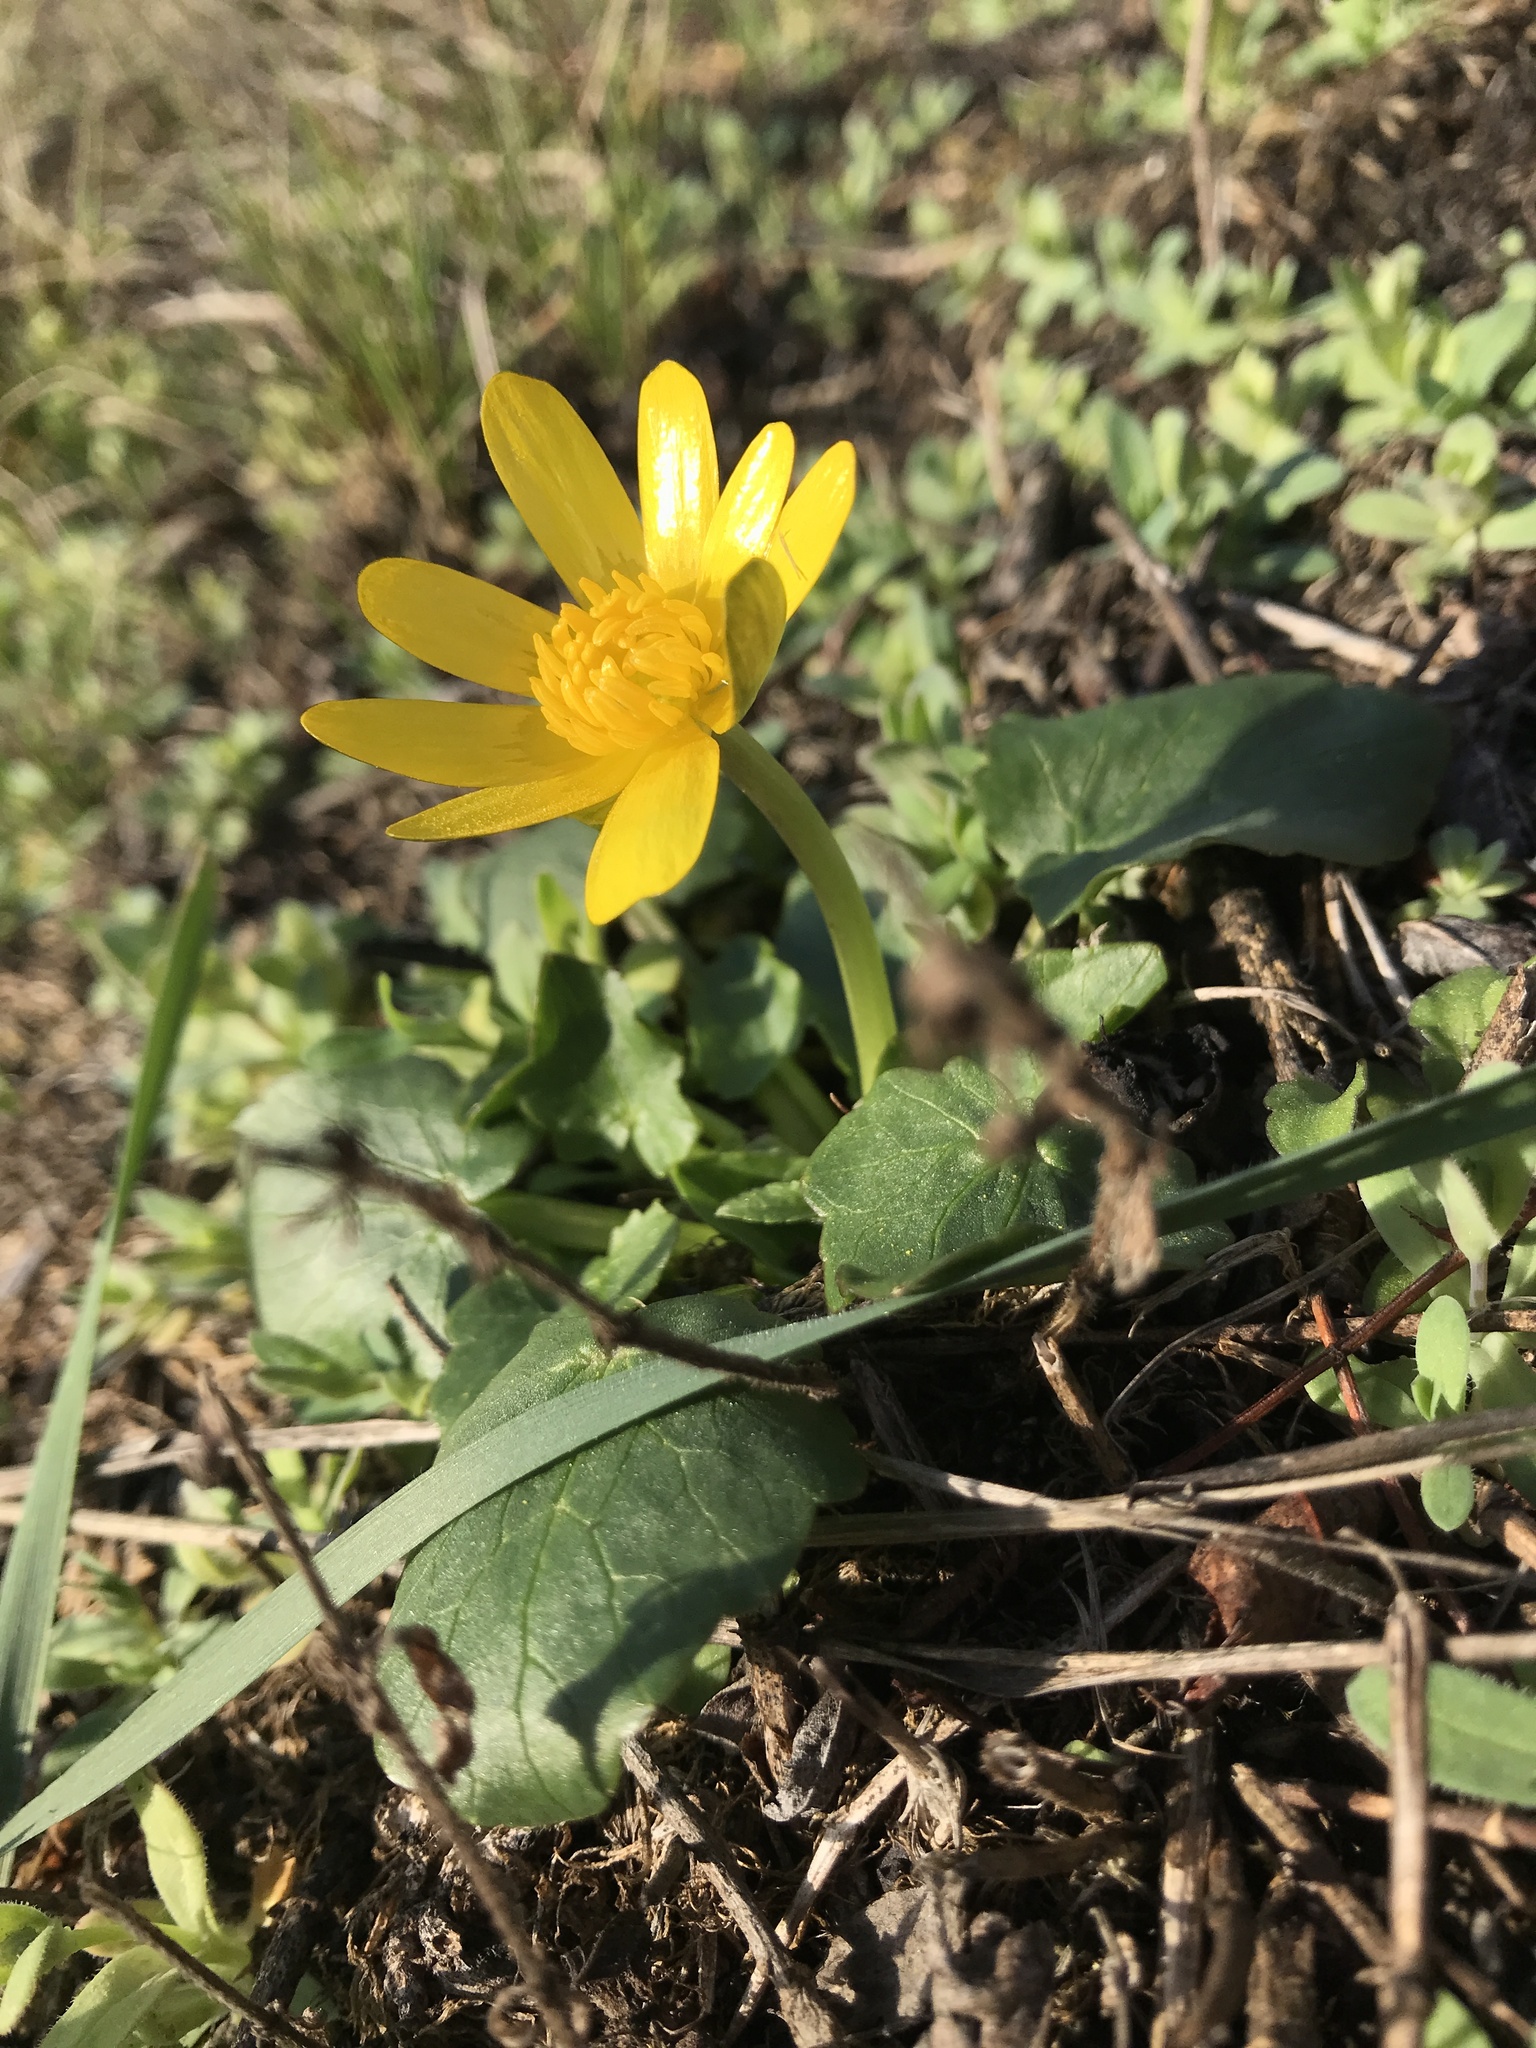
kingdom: Plantae
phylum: Tracheophyta
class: Magnoliopsida
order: Ranunculales
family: Ranunculaceae
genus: Ficaria
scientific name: Ficaria verna
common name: Lesser celandine
